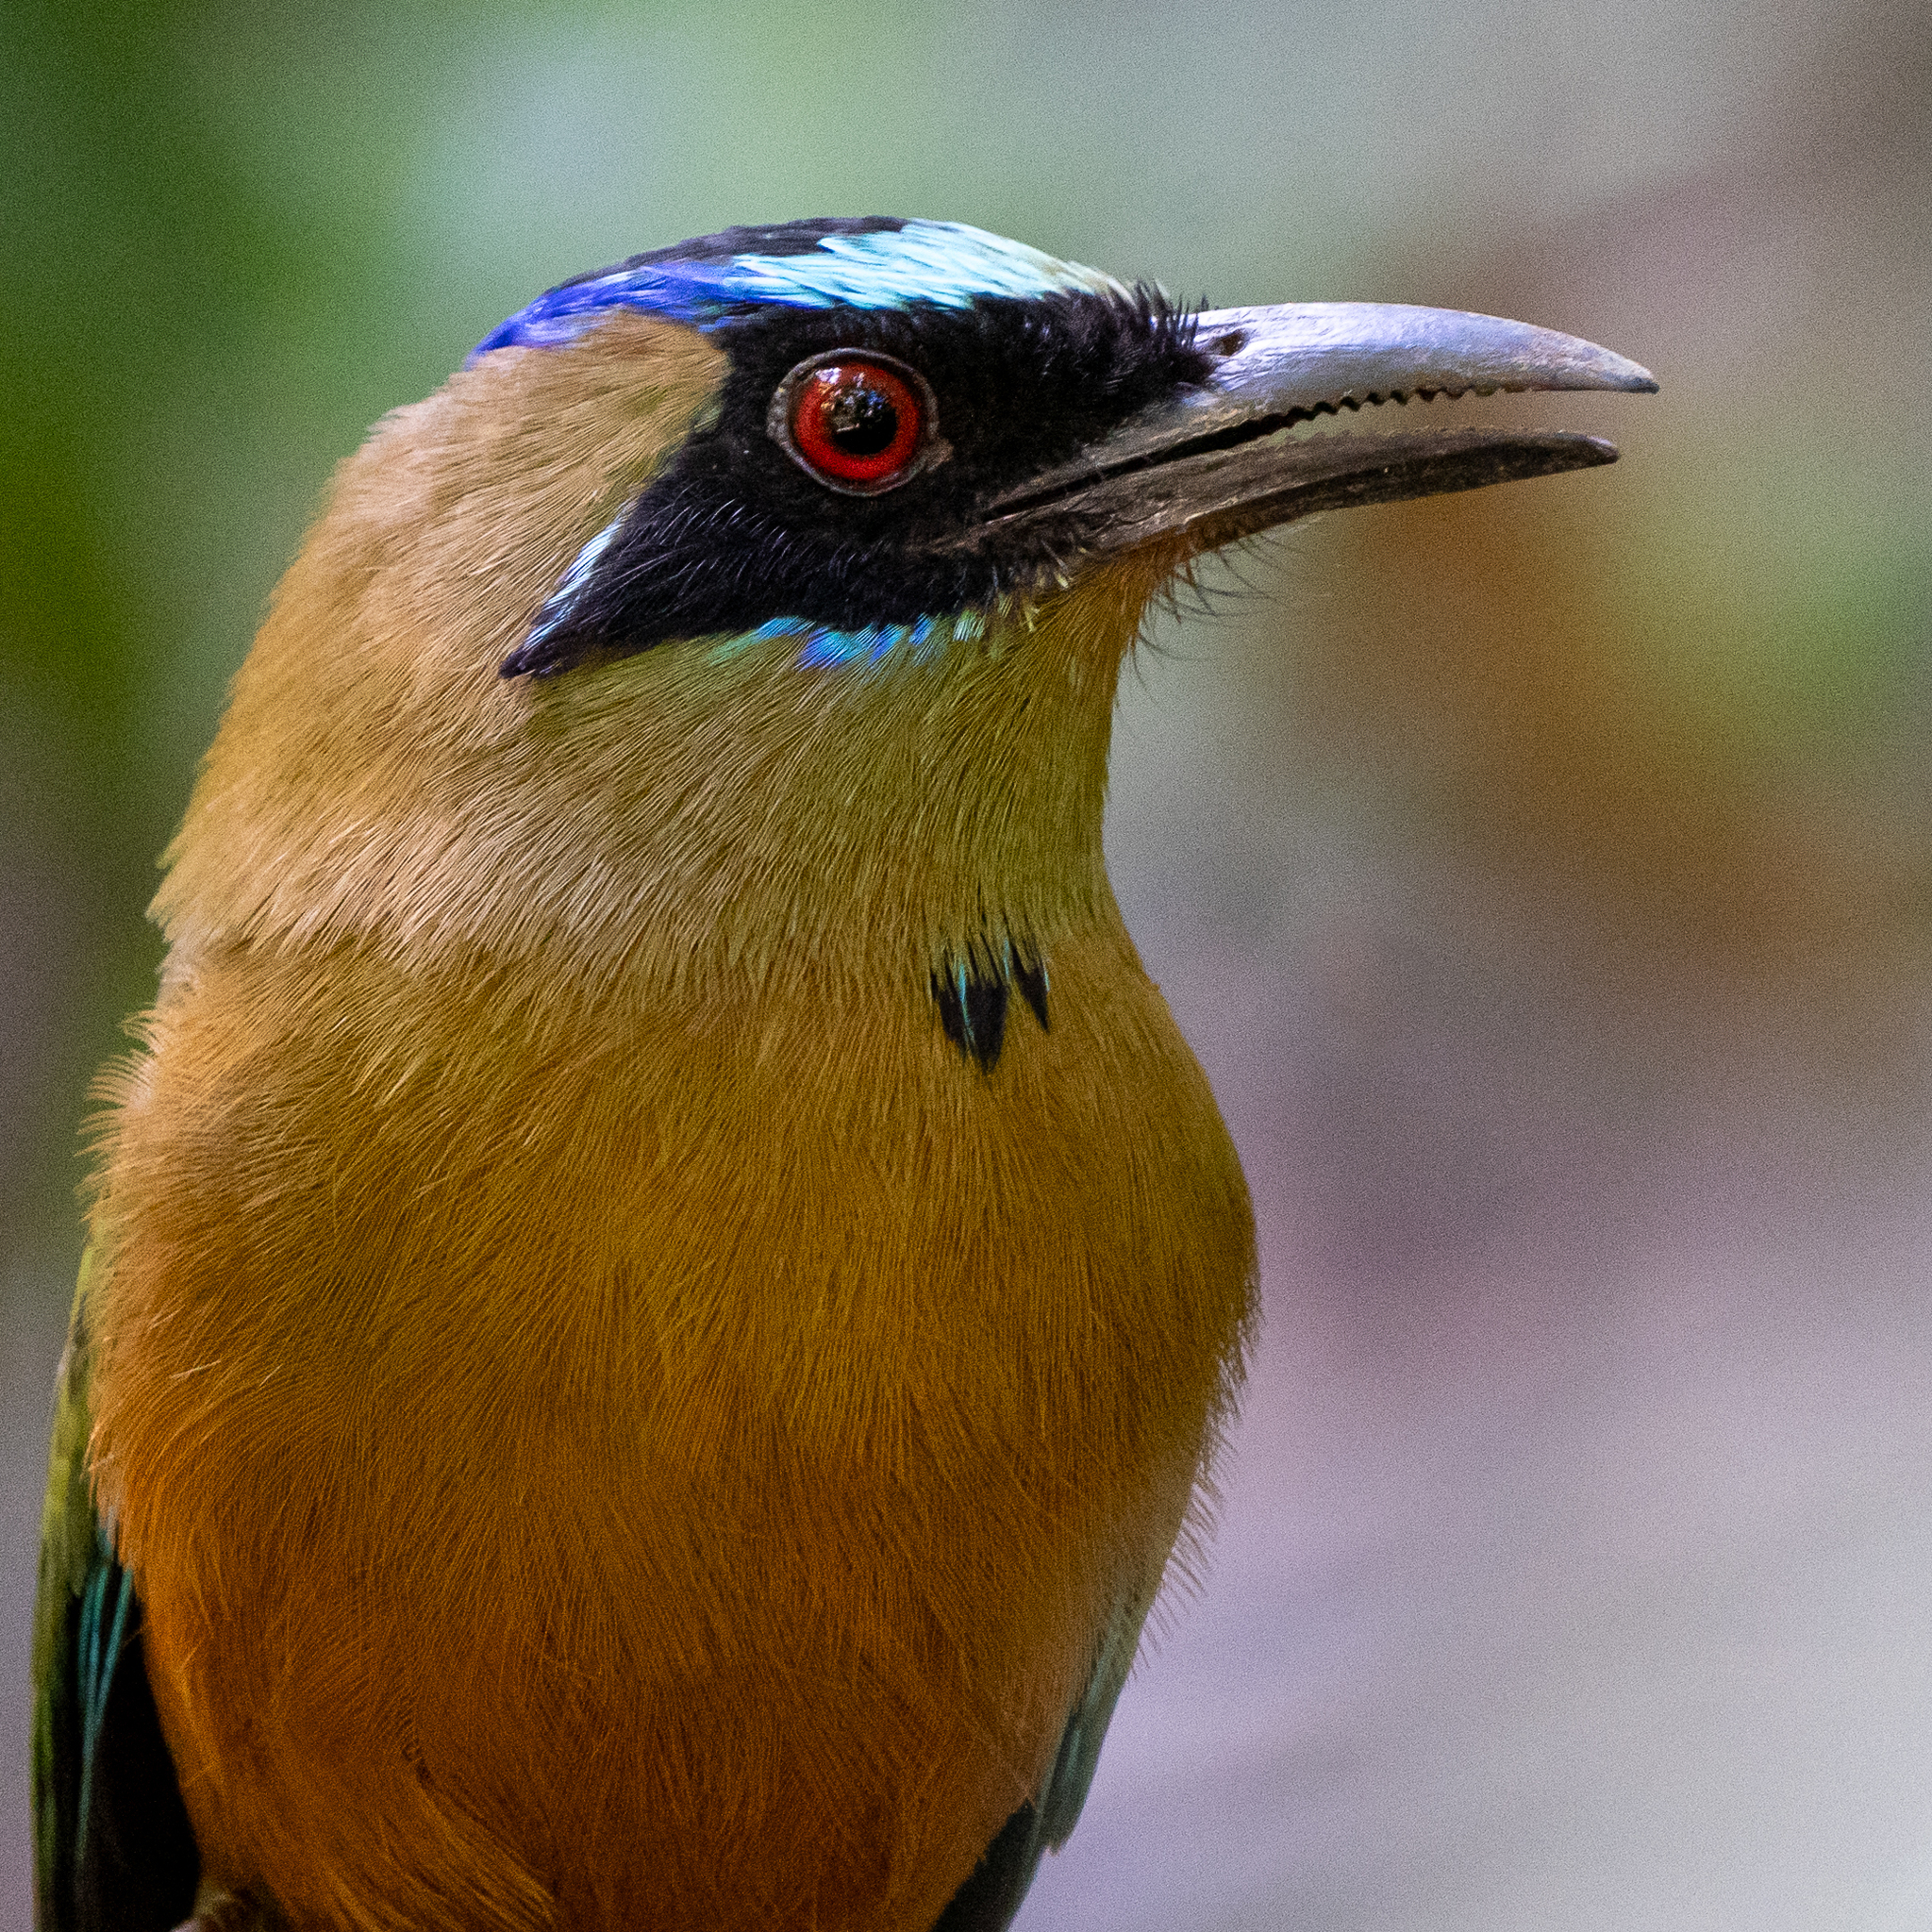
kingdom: Animalia
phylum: Chordata
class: Aves
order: Coraciiformes
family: Momotidae
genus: Momotus
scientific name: Momotus subrufescens
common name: Whooping motmot
